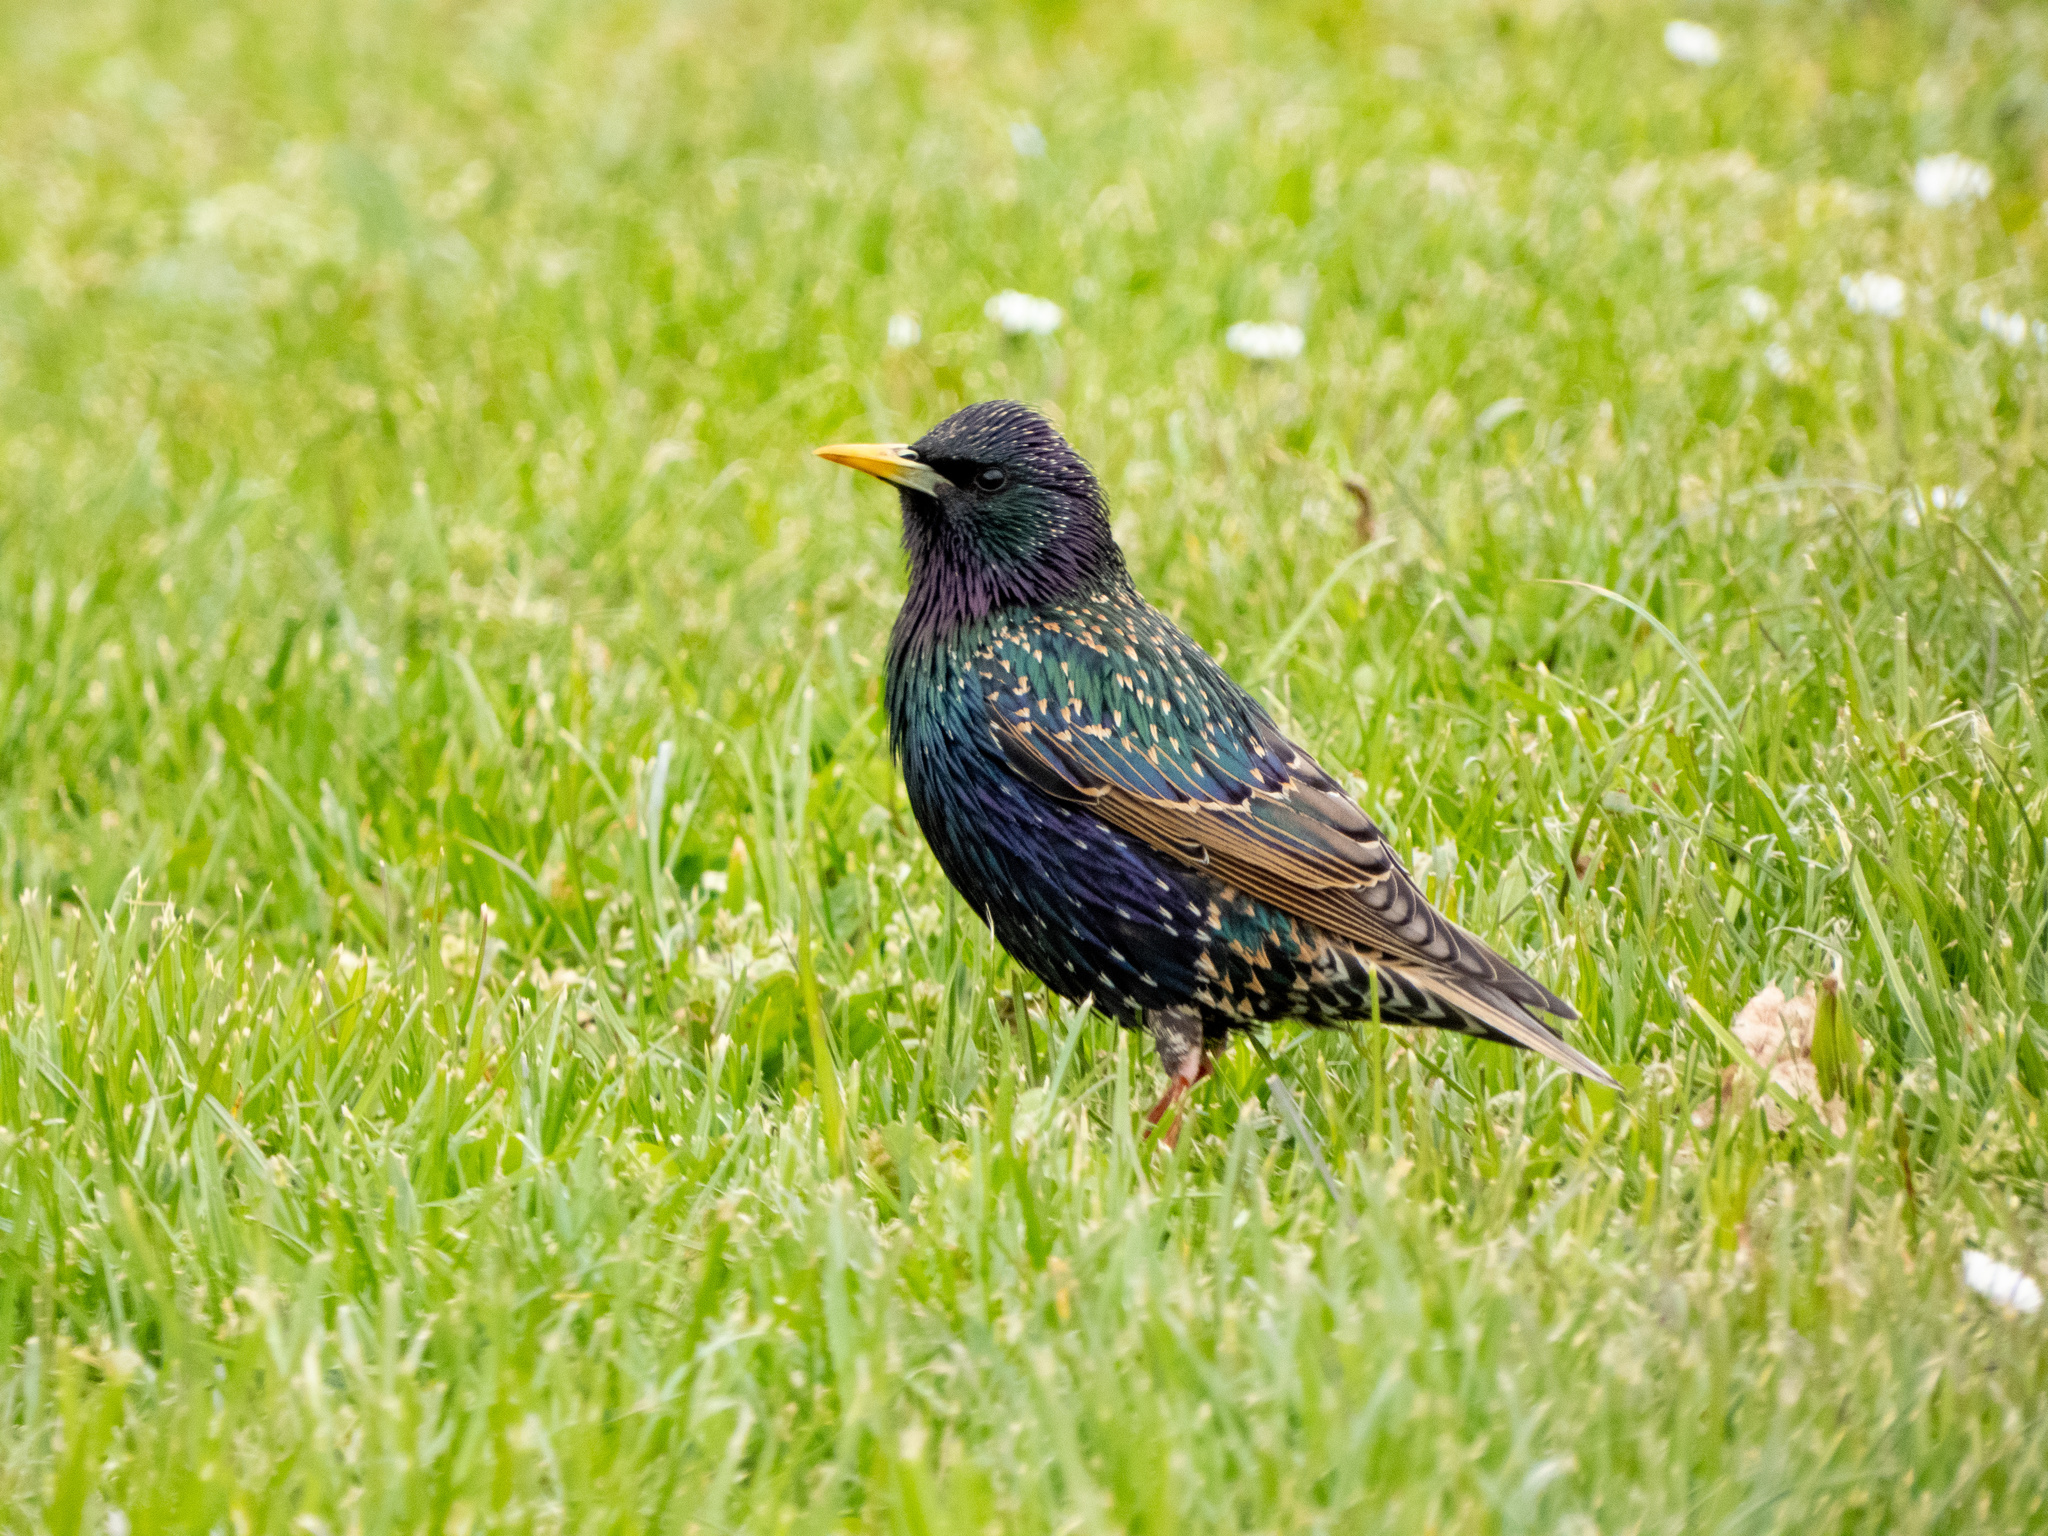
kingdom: Animalia
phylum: Chordata
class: Aves
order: Passeriformes
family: Sturnidae
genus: Sturnus
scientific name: Sturnus vulgaris
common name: Common starling
